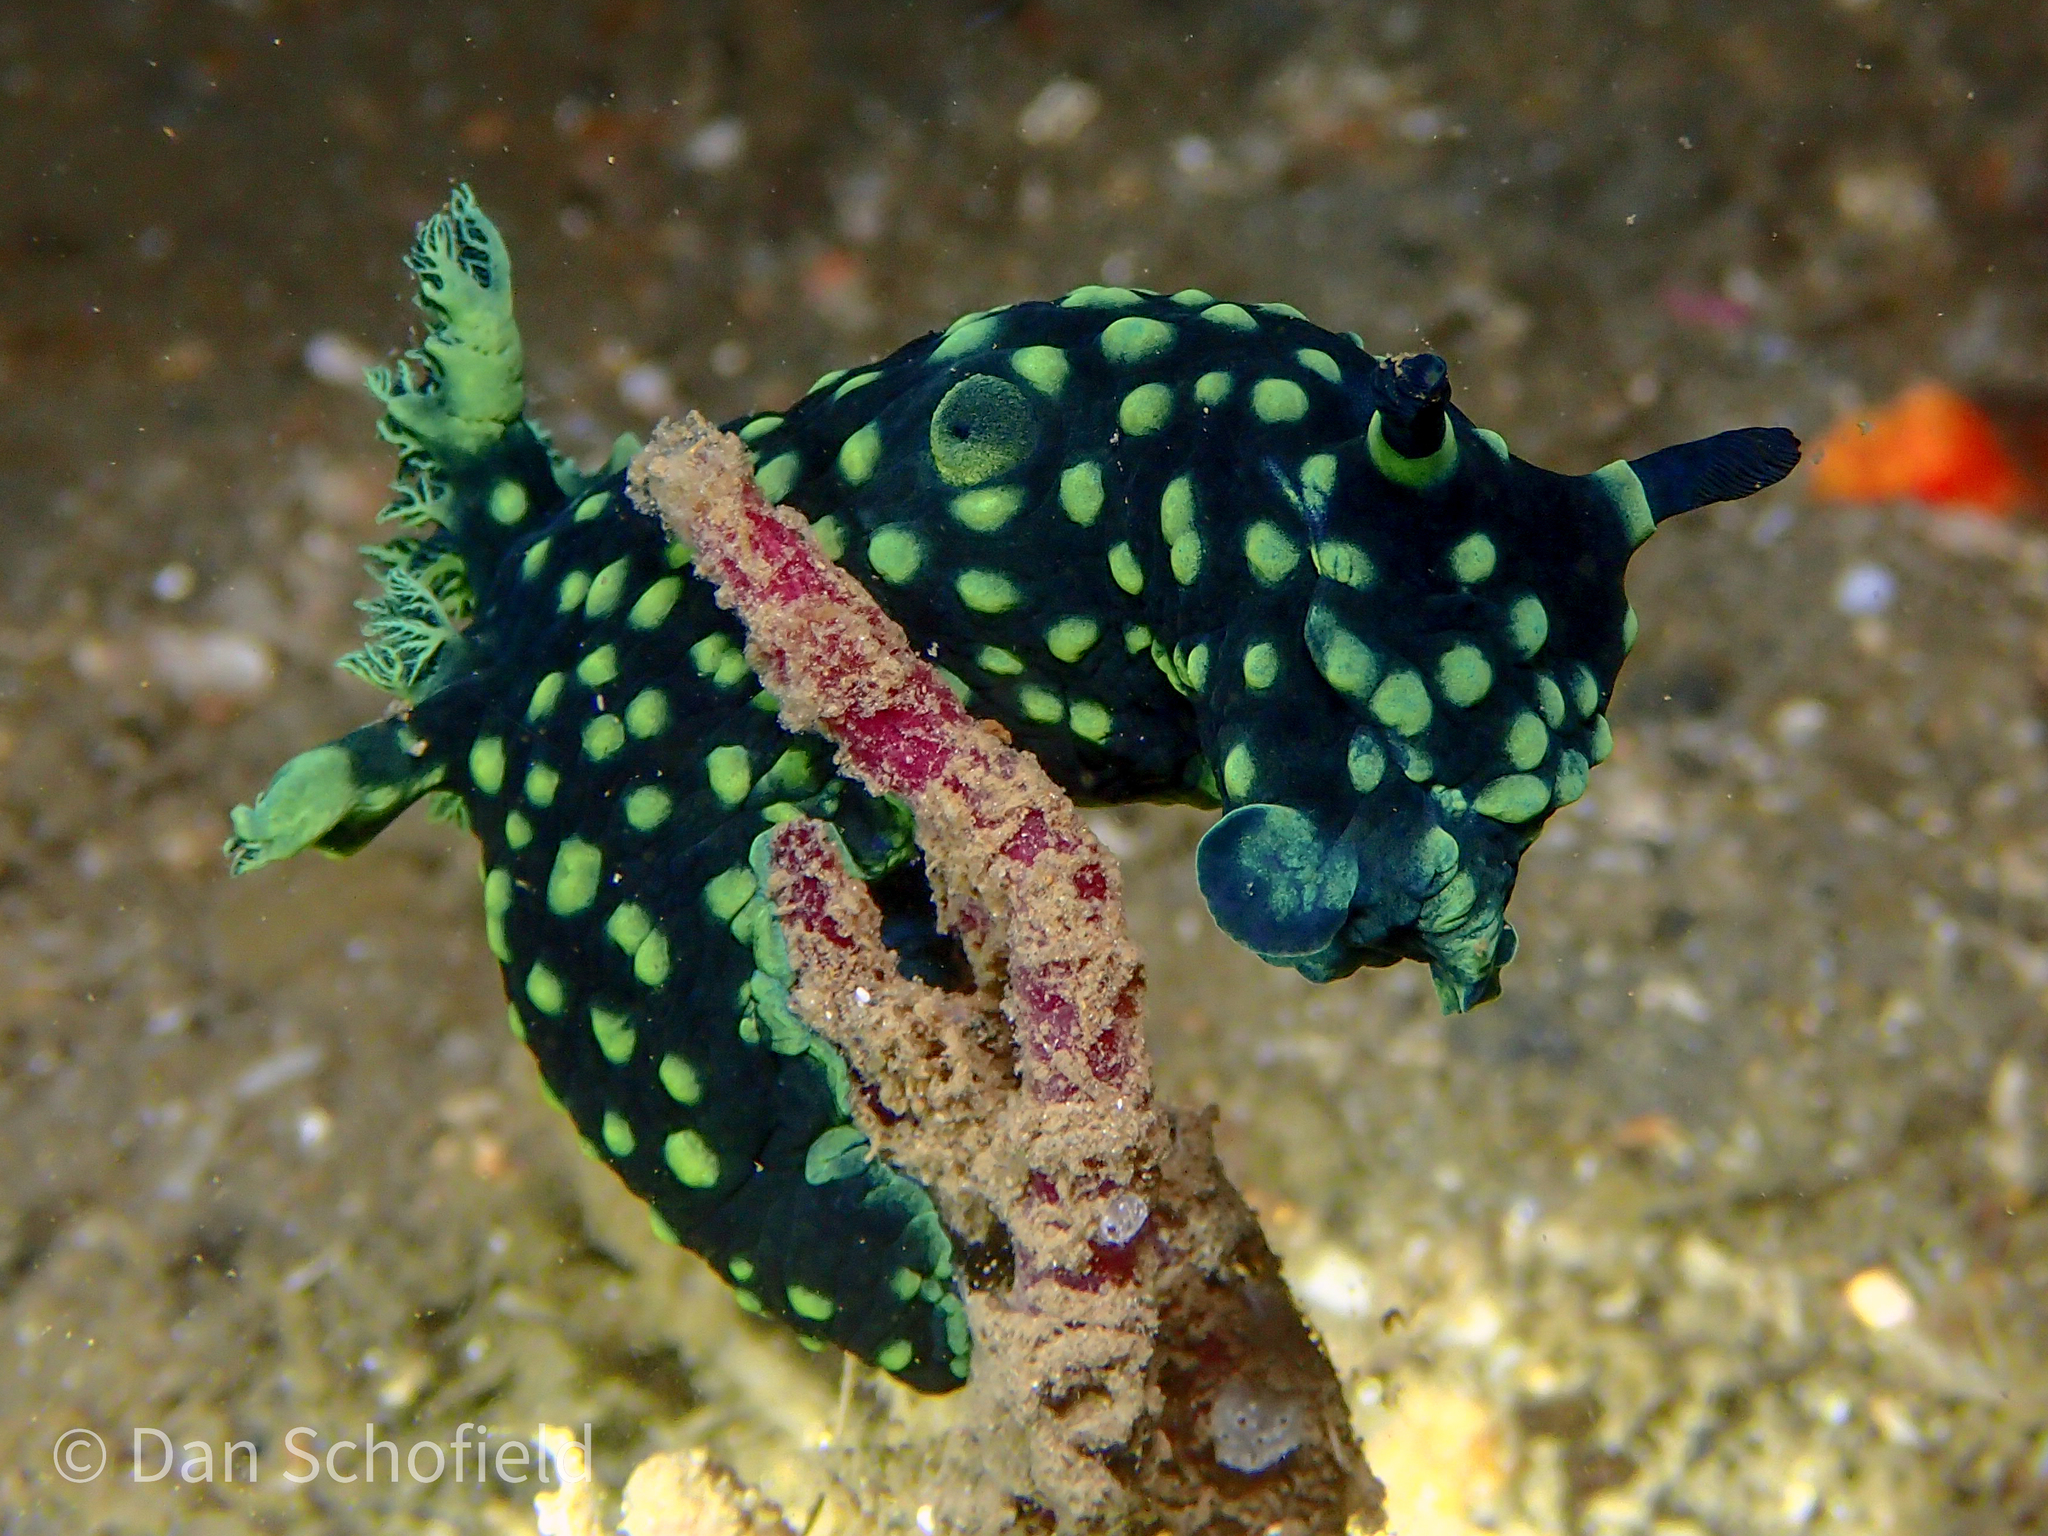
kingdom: Animalia
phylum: Mollusca
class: Gastropoda
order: Nudibranchia
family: Polyceridae
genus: Nembrotha
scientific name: Nembrotha cristata
